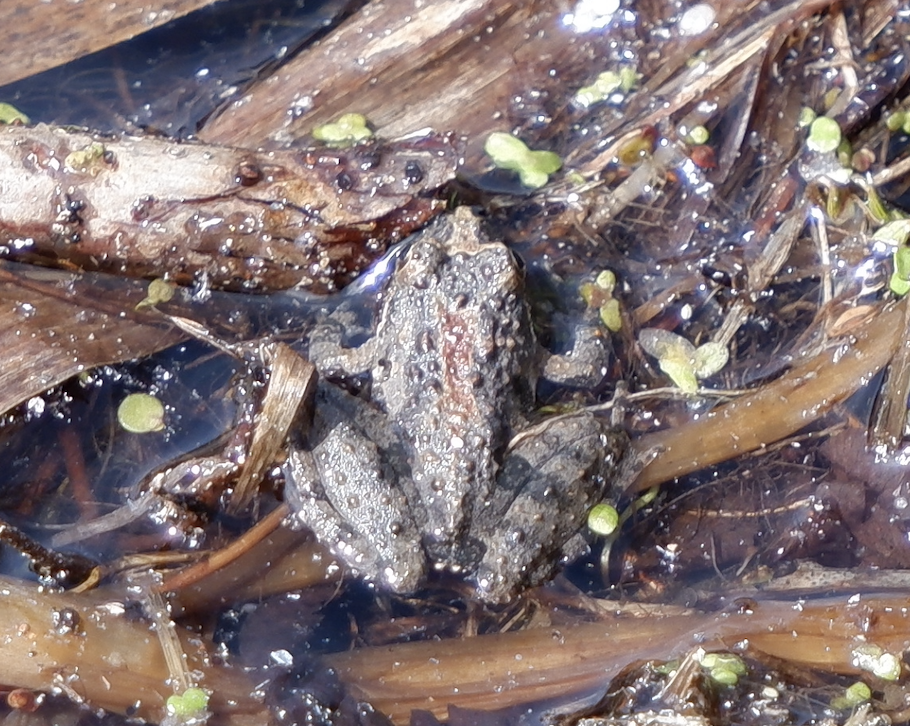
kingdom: Animalia
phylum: Chordata
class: Amphibia
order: Anura
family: Hylidae
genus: Acris
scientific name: Acris crepitans
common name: Northern cricket frog
